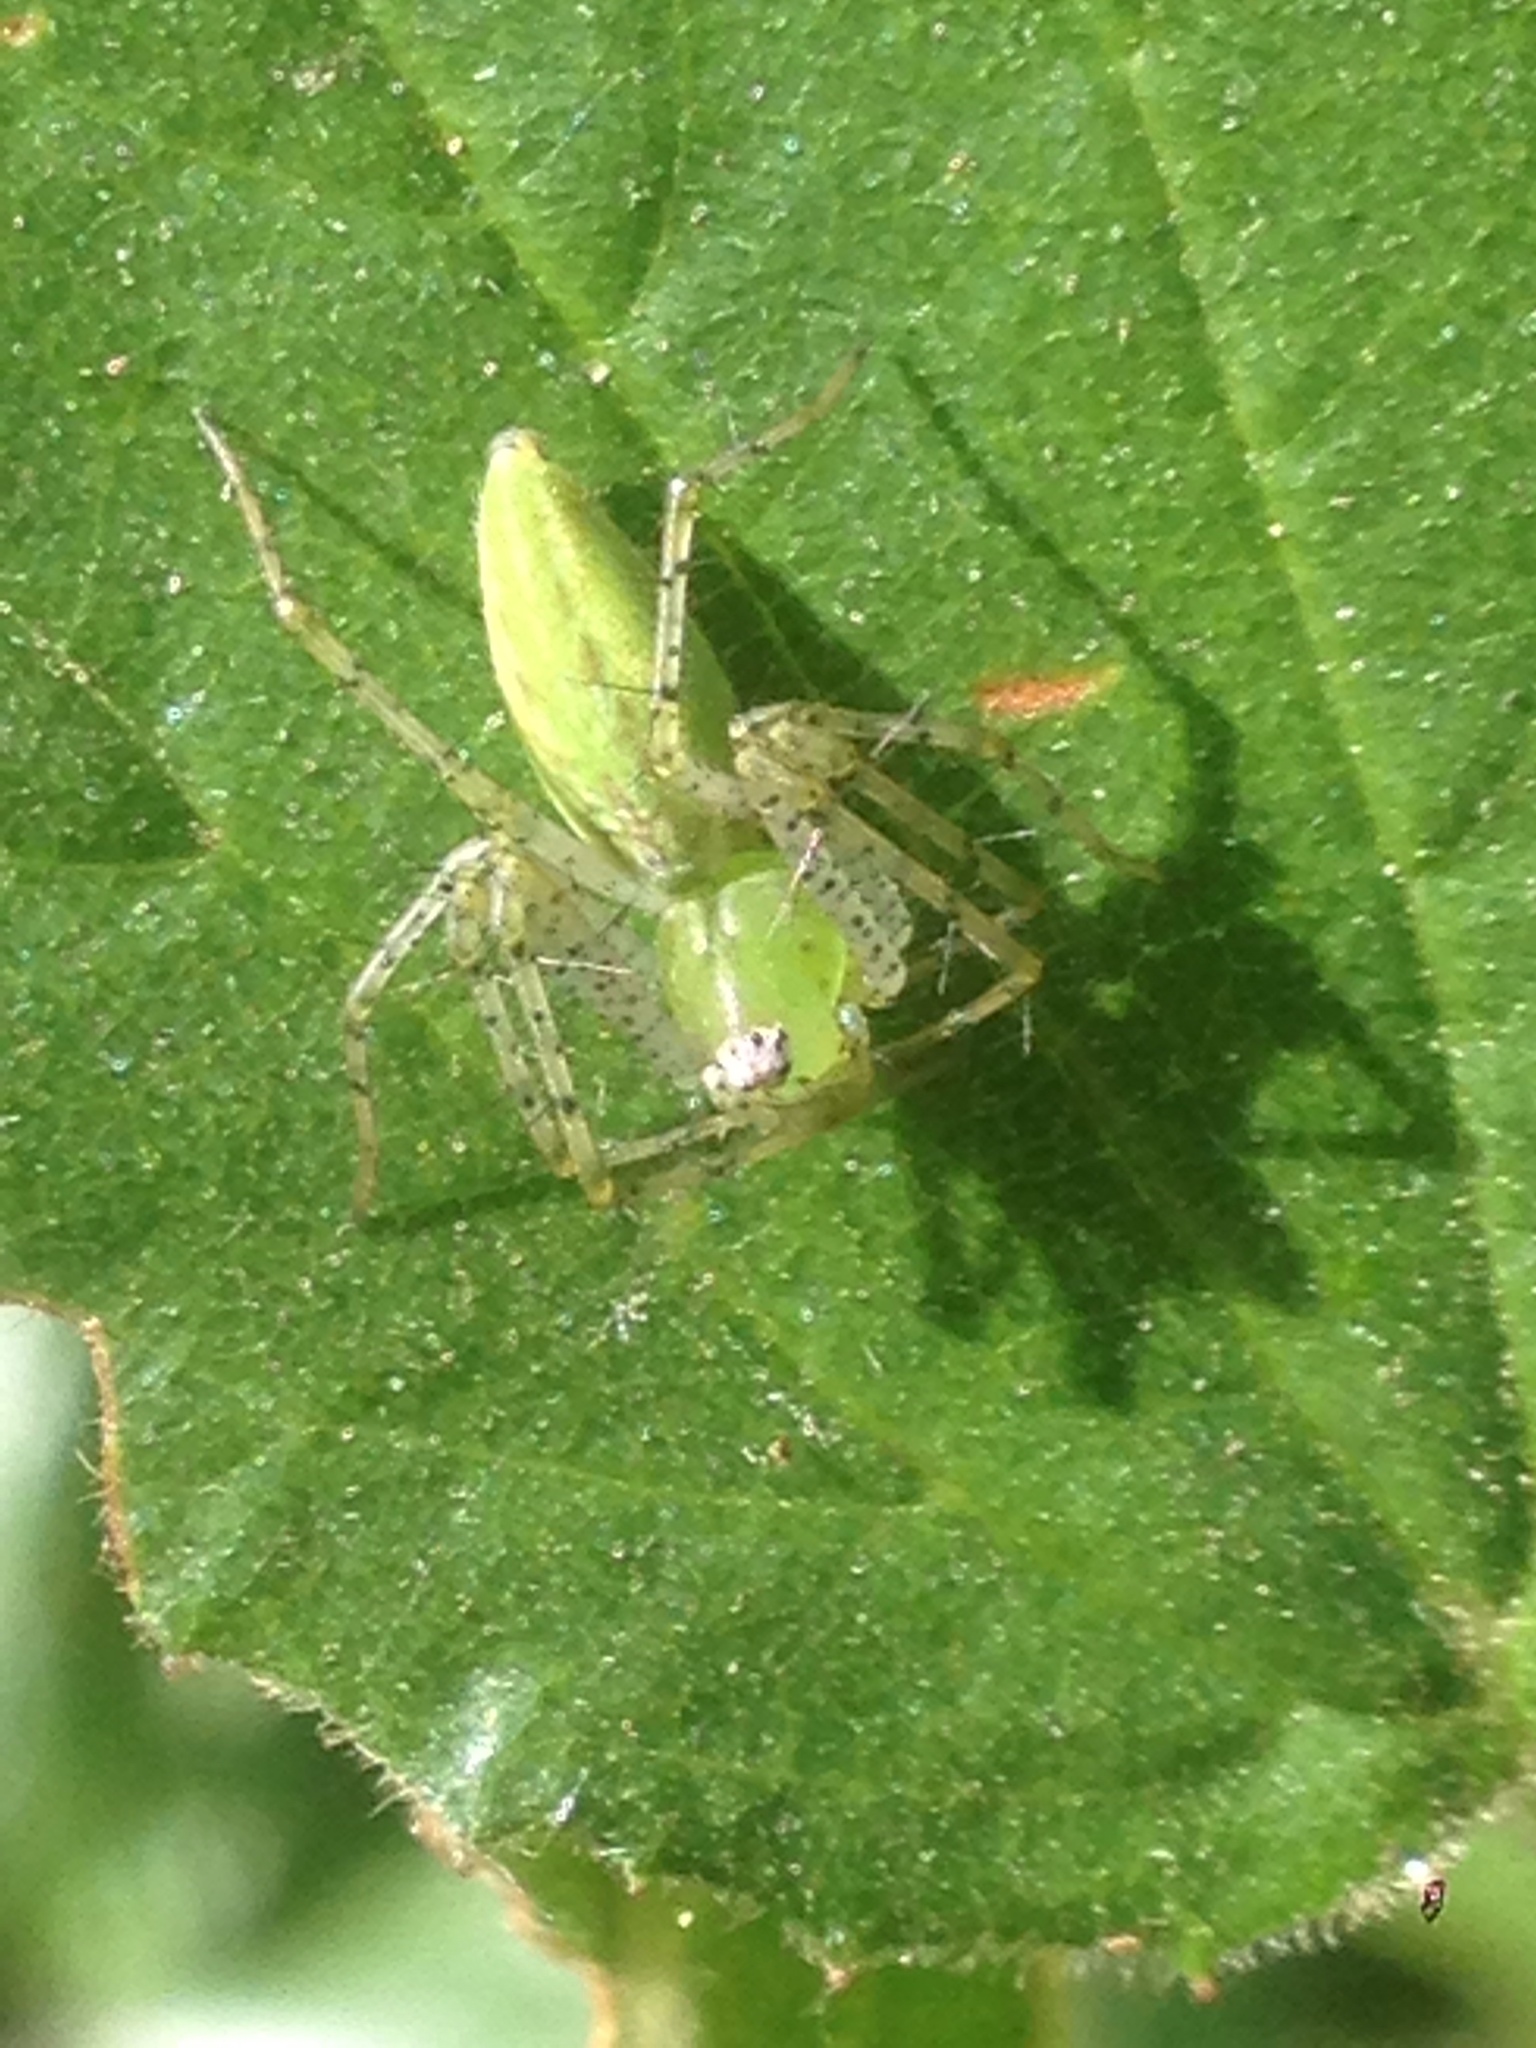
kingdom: Animalia
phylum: Arthropoda
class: Arachnida
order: Araneae
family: Oxyopidae
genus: Peucetia
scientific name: Peucetia viridans
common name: Lynx spiders
